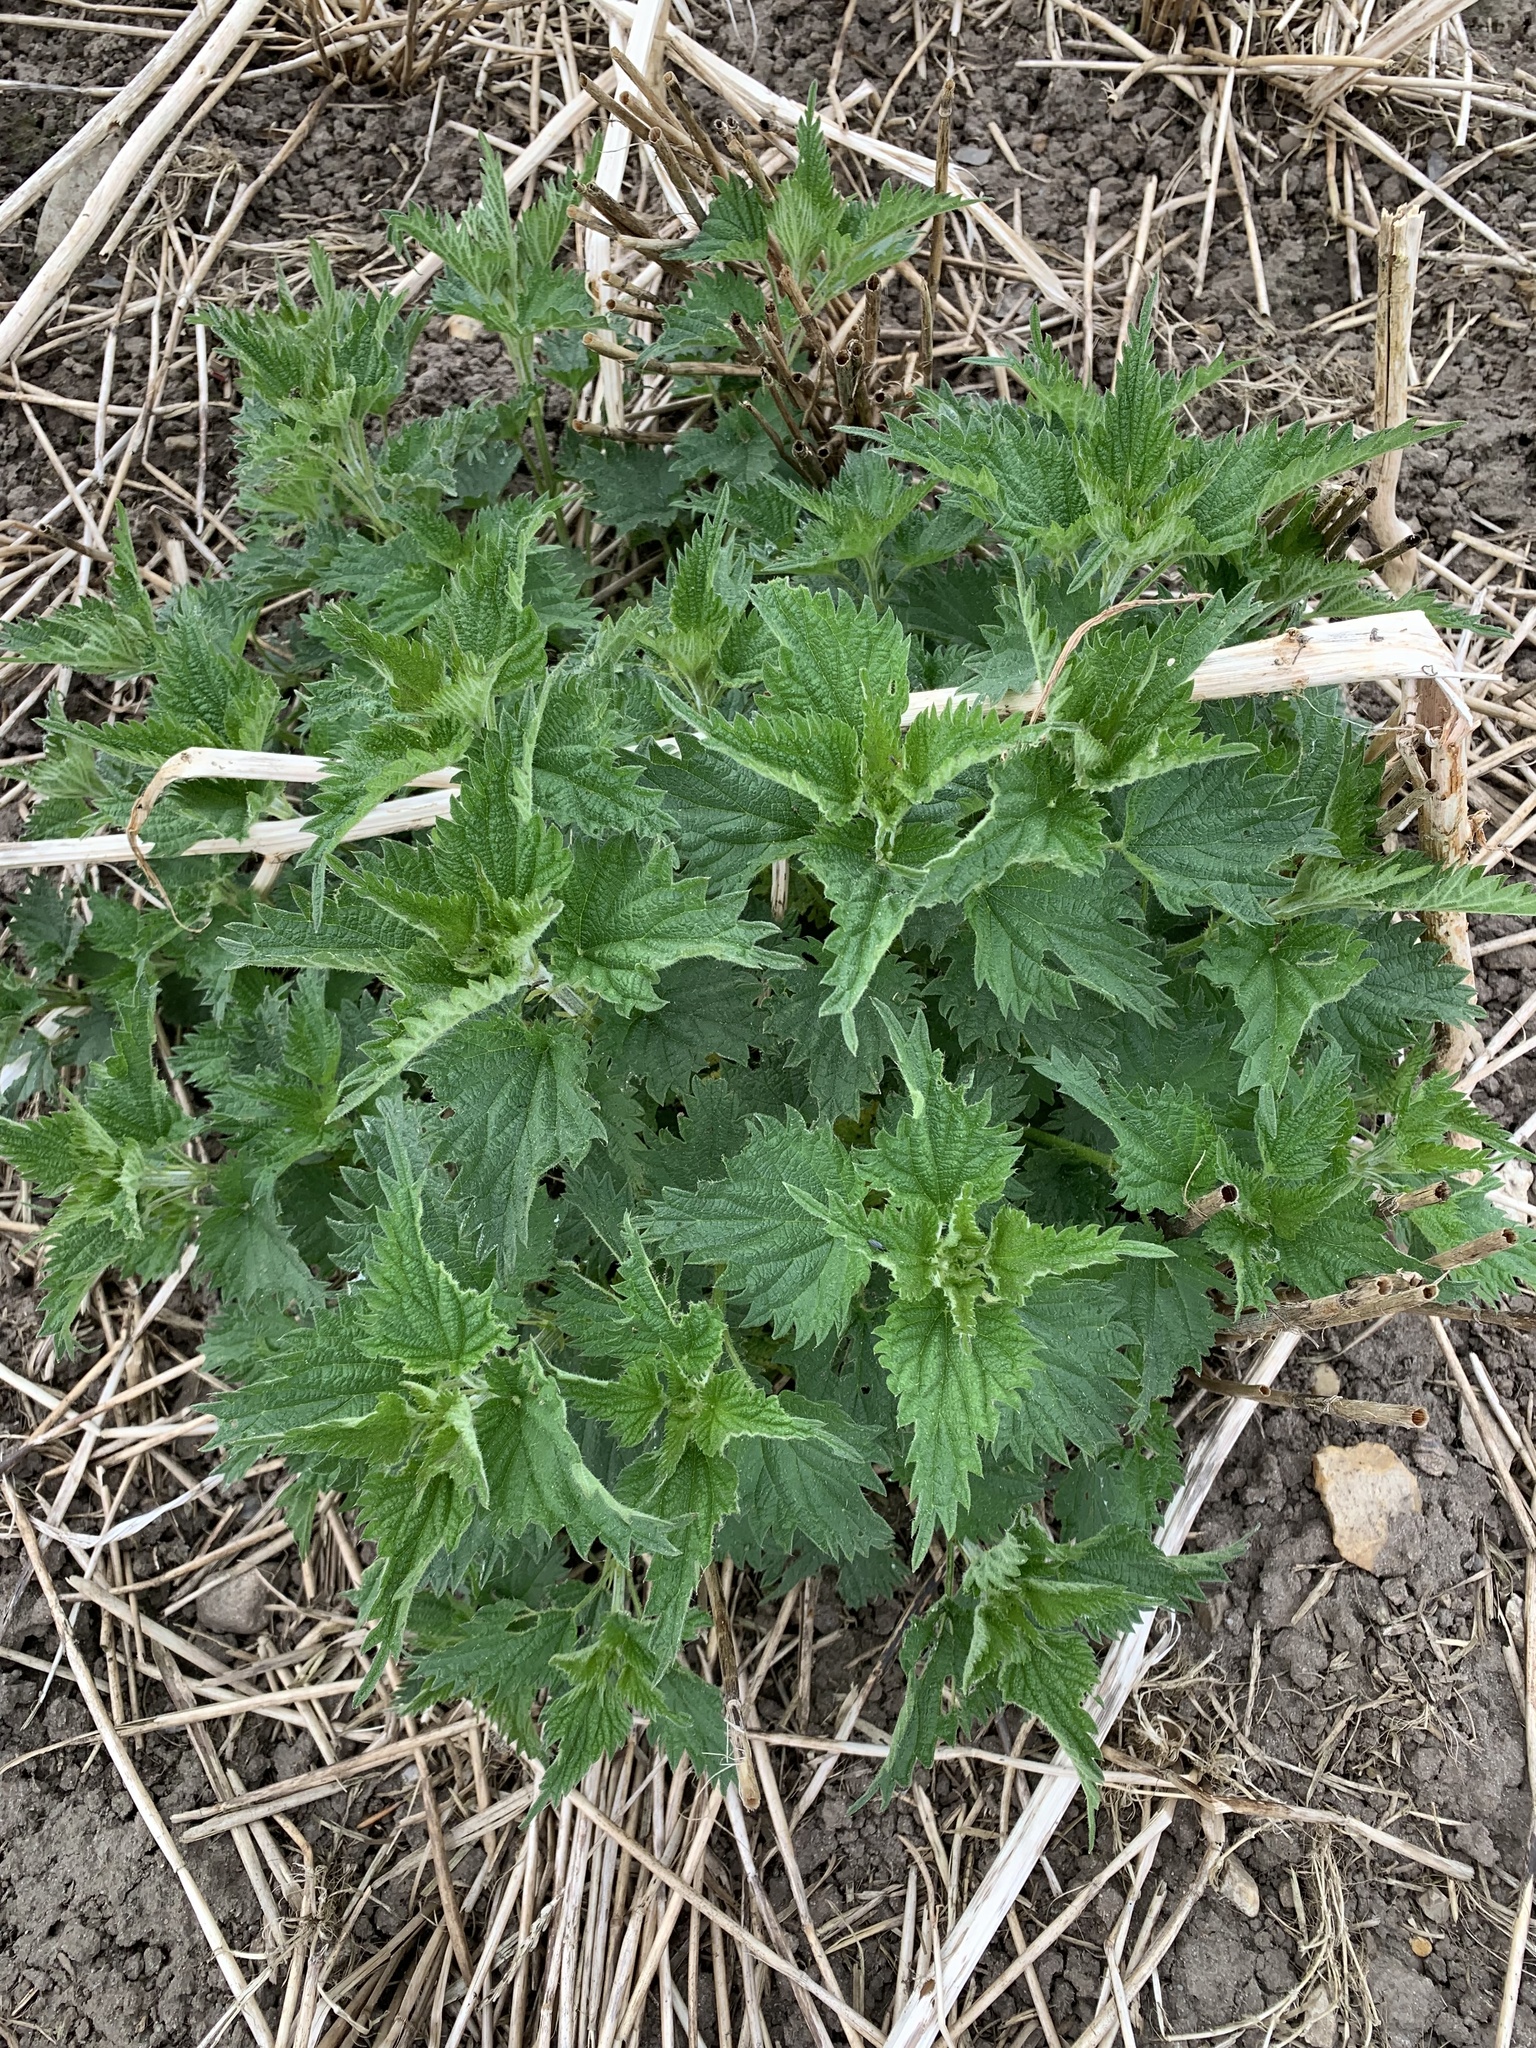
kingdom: Plantae
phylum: Tracheophyta
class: Magnoliopsida
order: Rosales
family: Urticaceae
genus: Urtica
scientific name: Urtica dioica
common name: Common nettle
